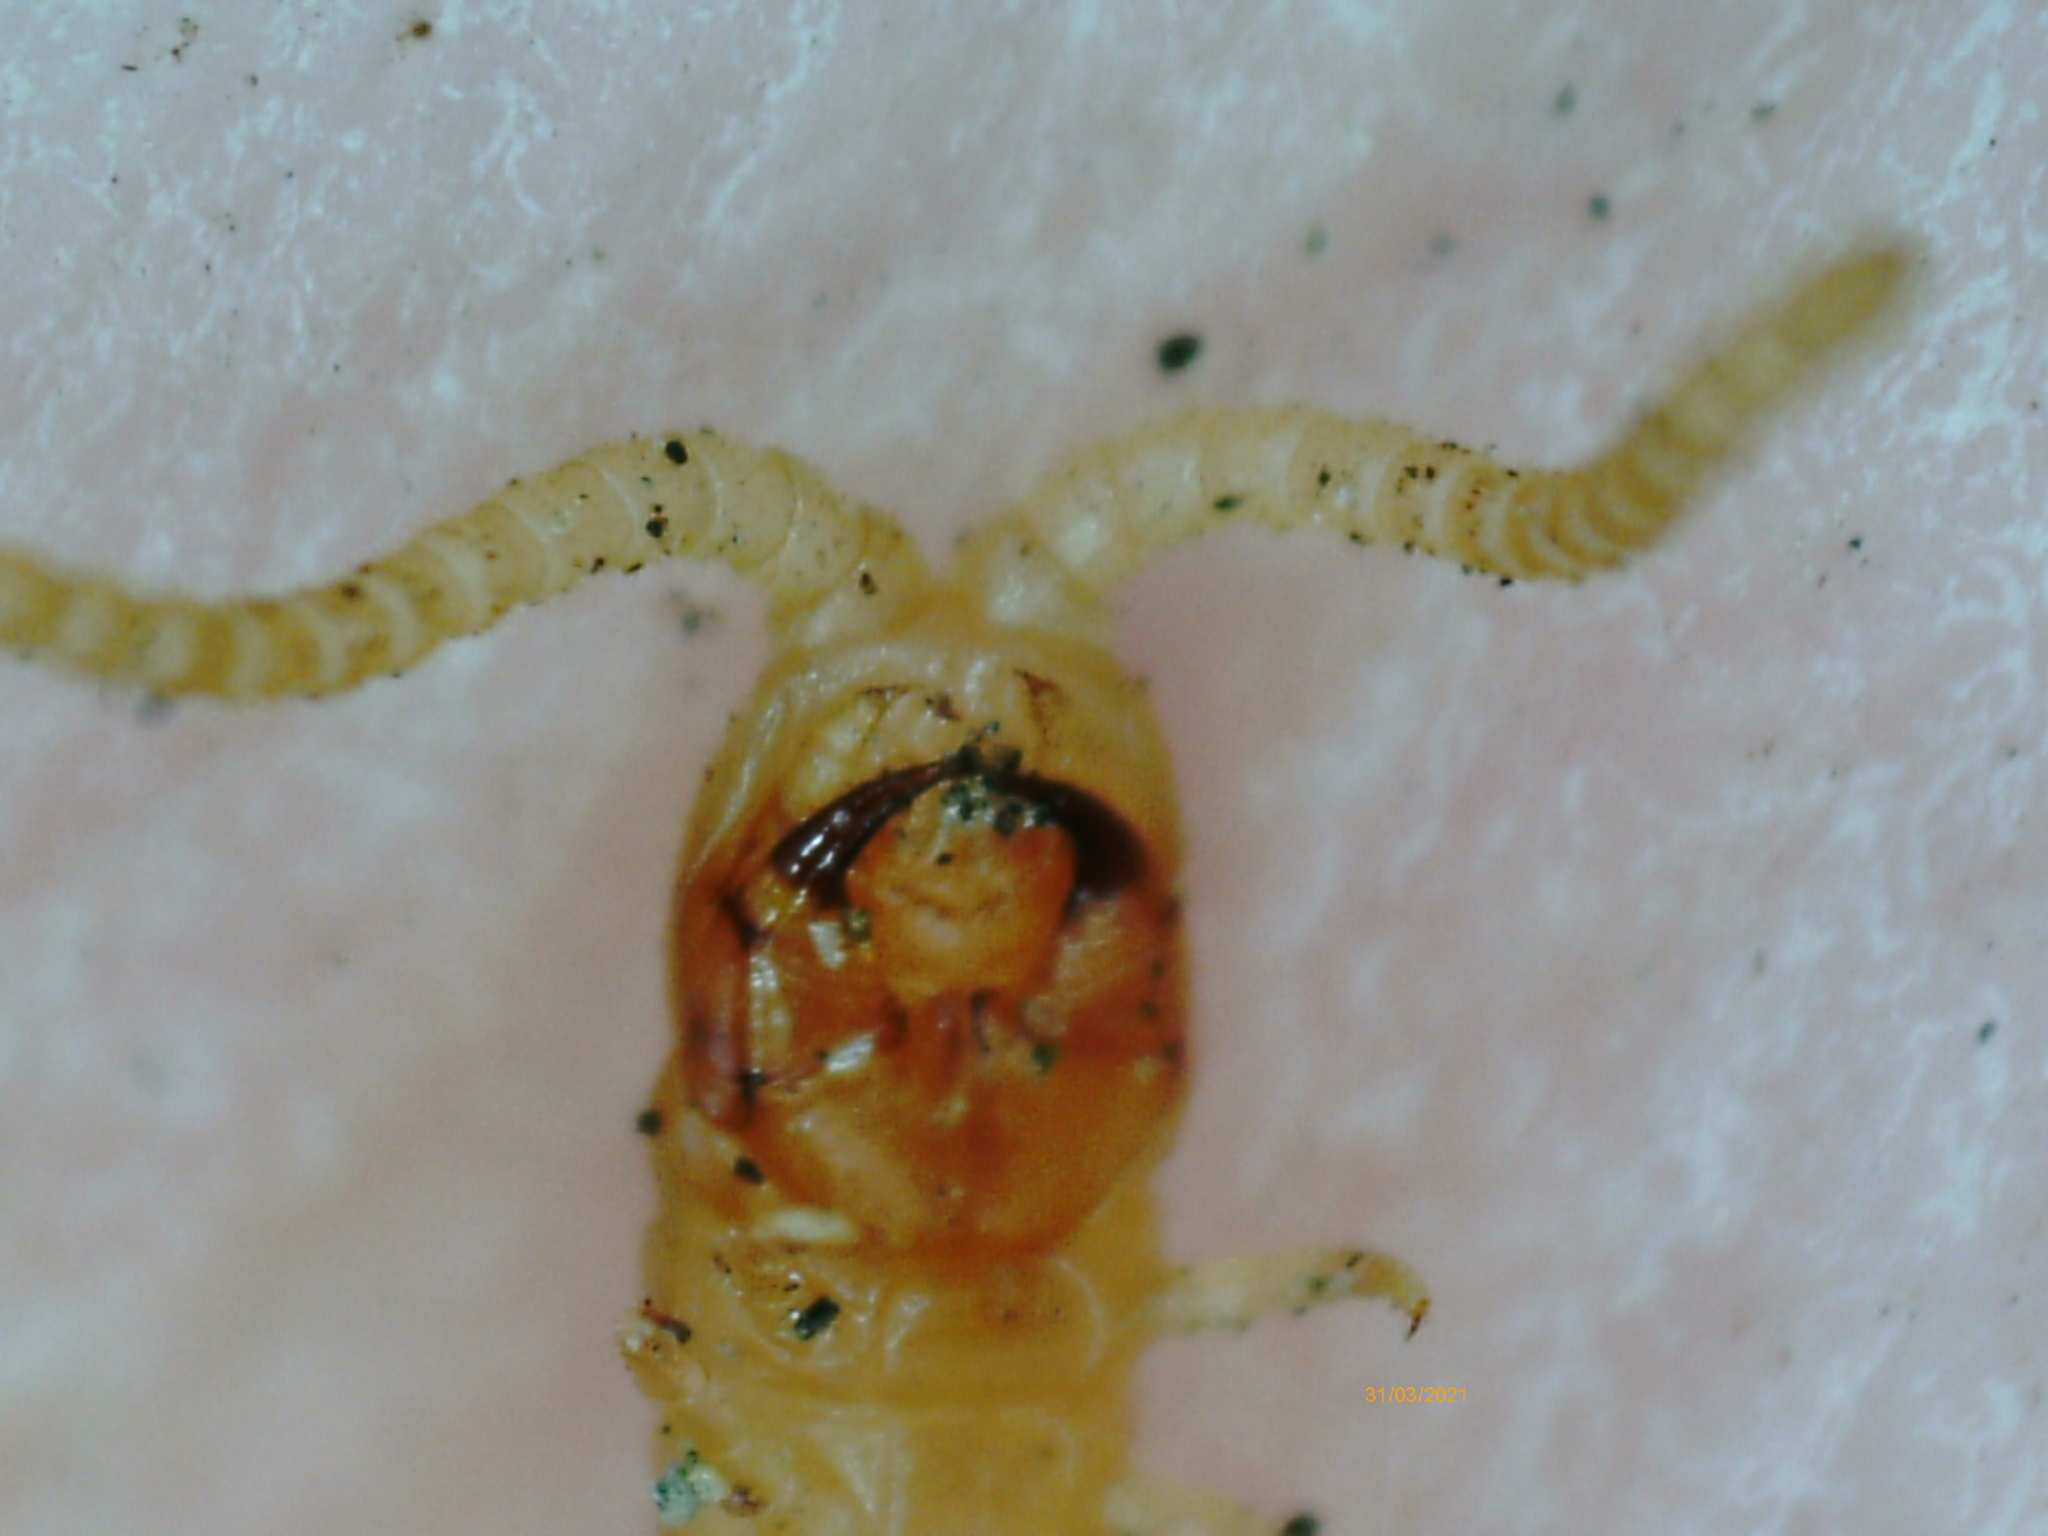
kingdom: Animalia
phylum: Arthropoda
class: Chilopoda
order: Geophilomorpha
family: Himantariidae
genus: Stigmatogaster
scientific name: Stigmatogaster subterranea
